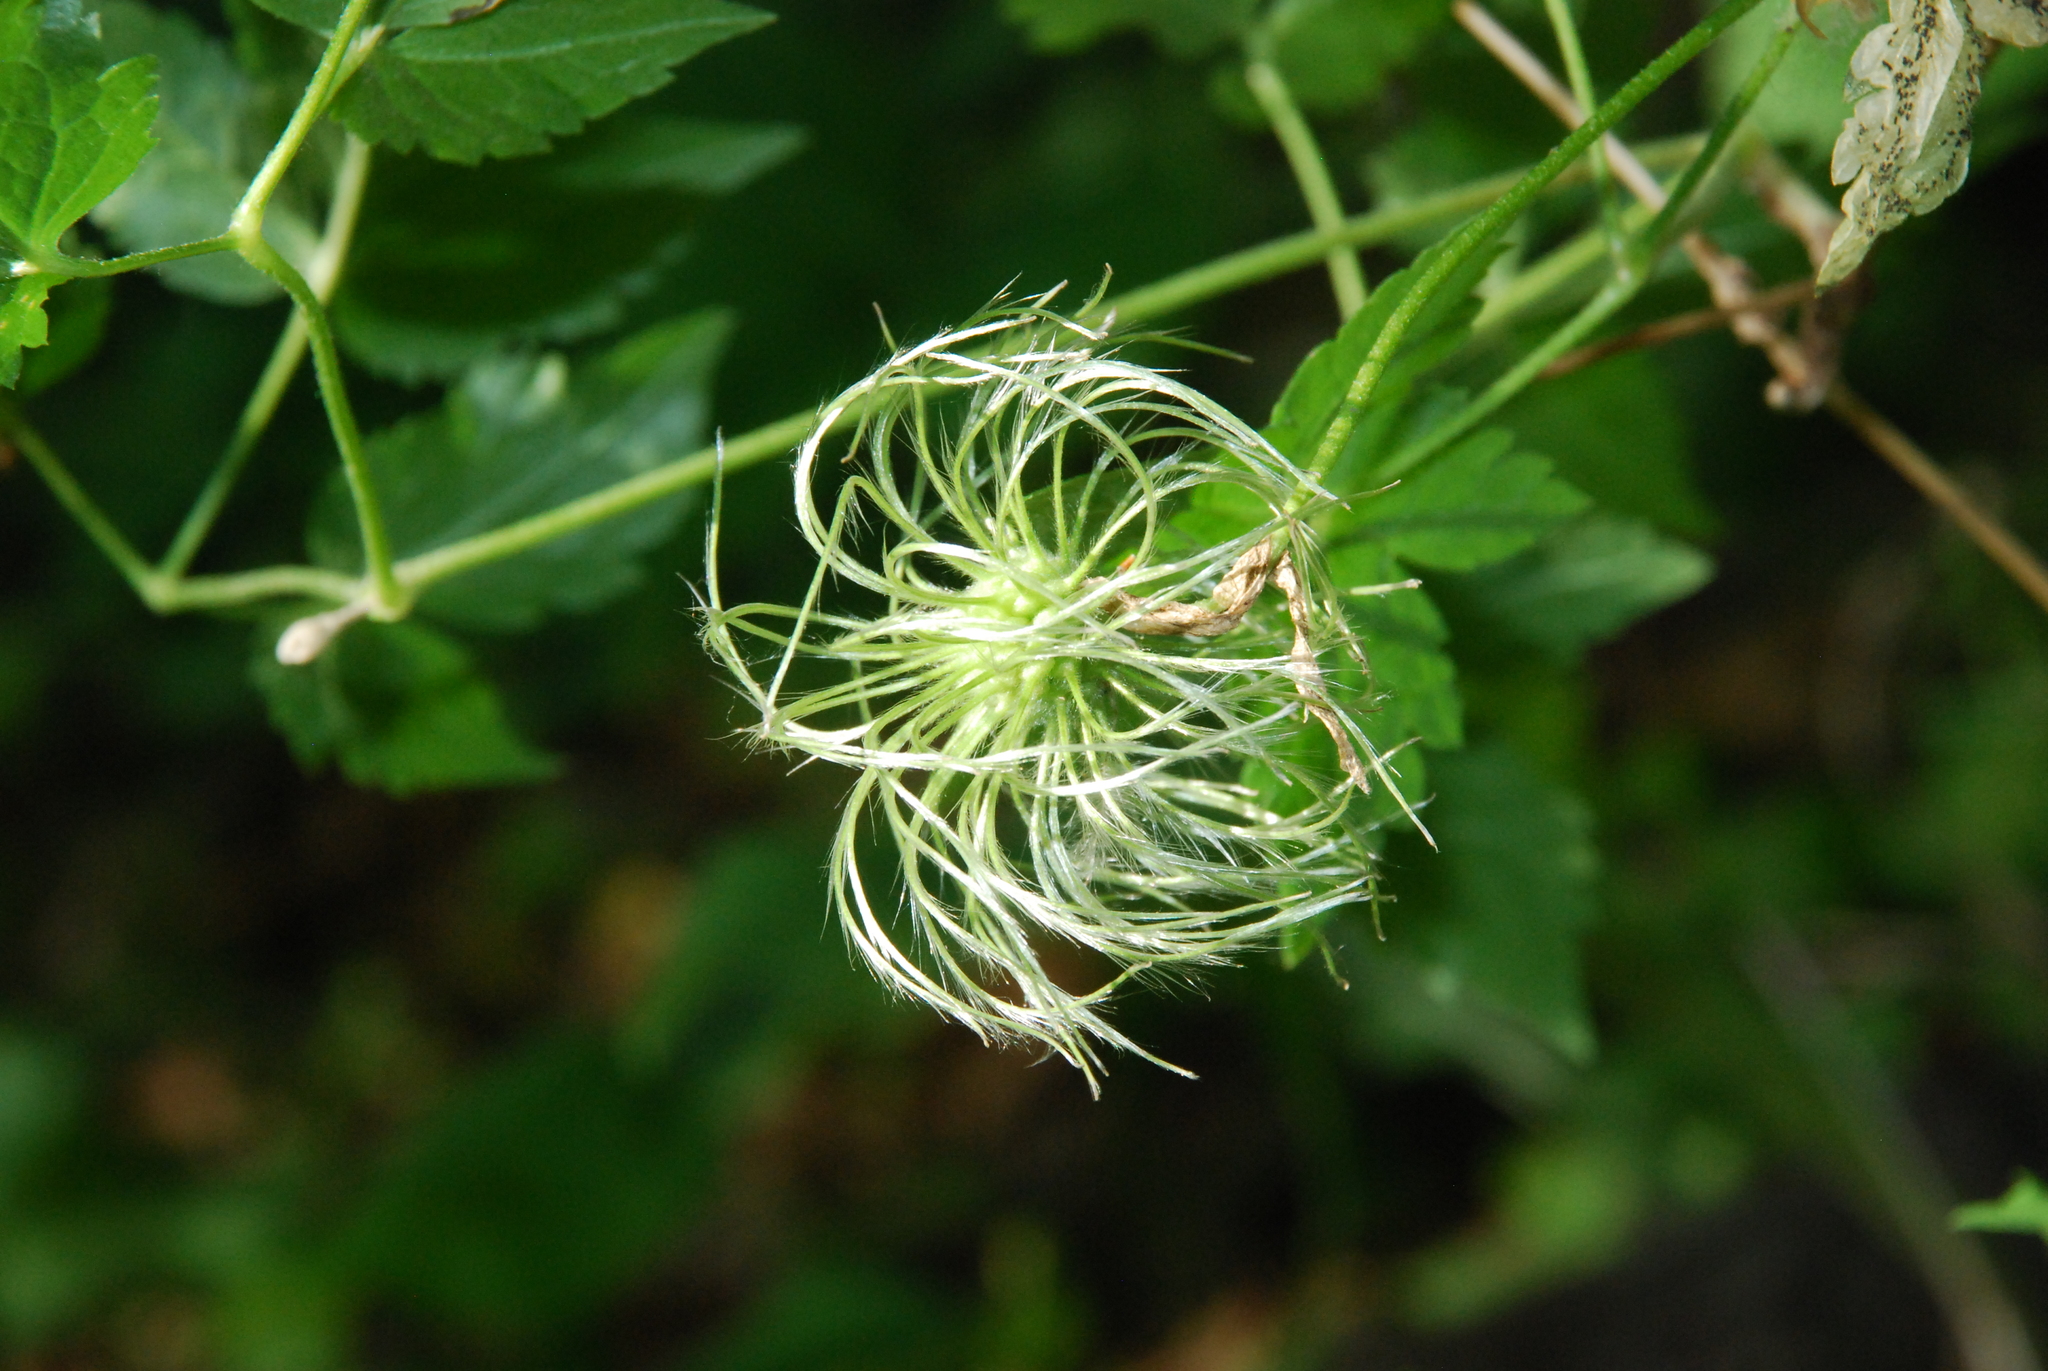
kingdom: Plantae
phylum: Tracheophyta
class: Magnoliopsida
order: Ranunculales
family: Ranunculaceae
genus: Clematis
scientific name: Clematis sibirica
